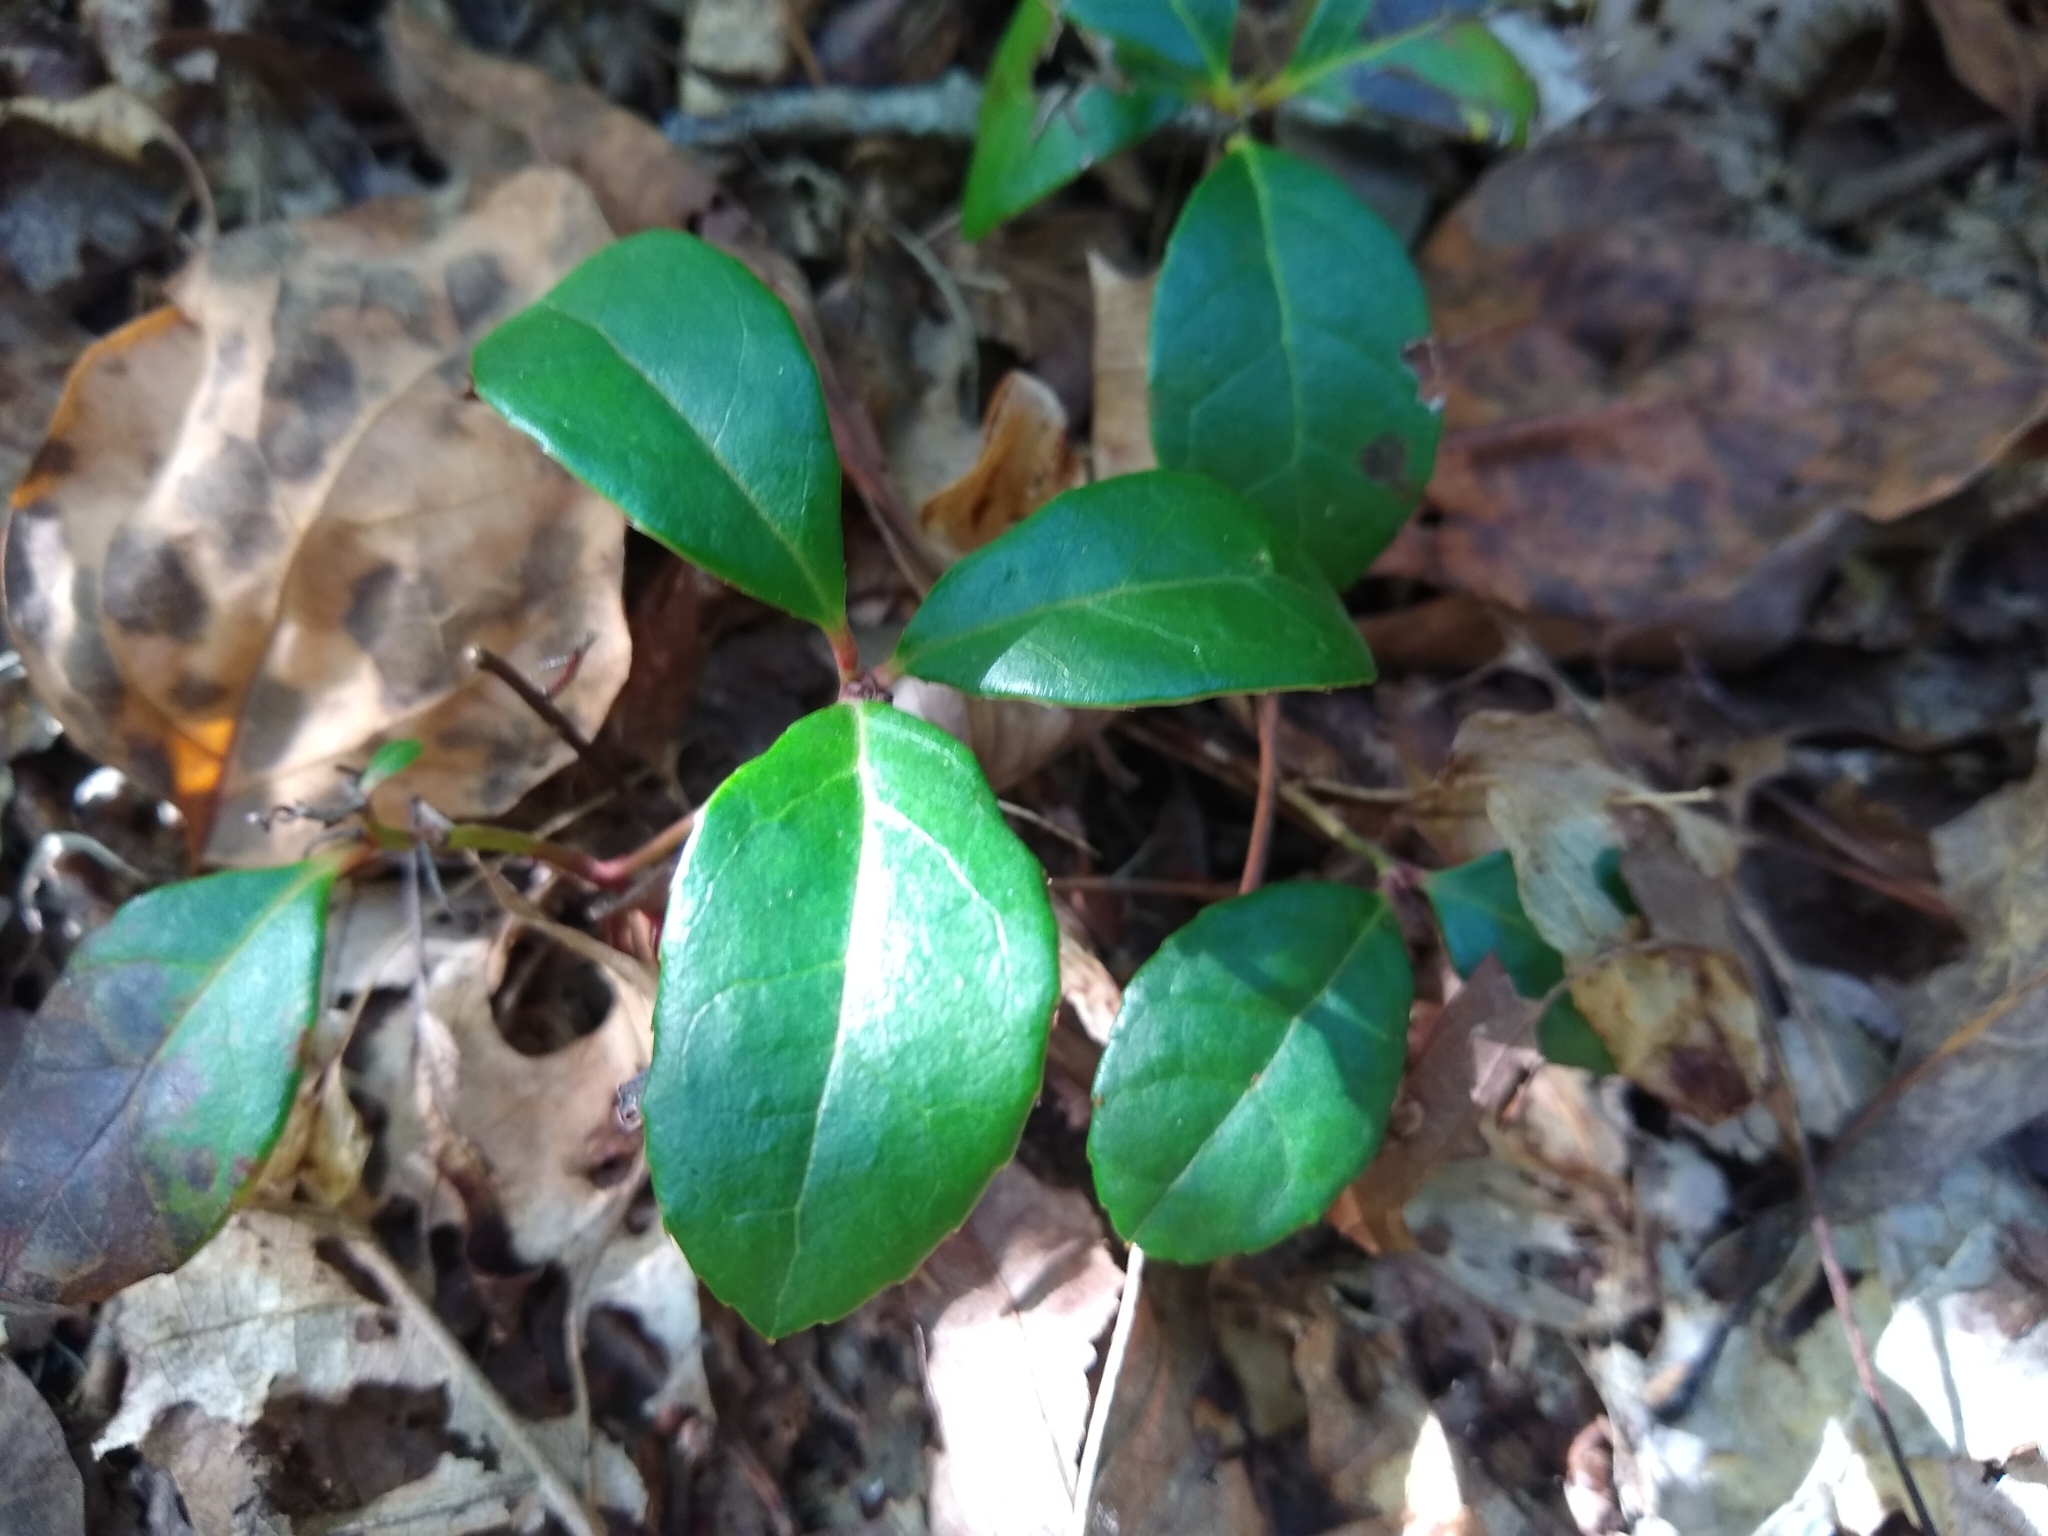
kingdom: Plantae
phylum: Tracheophyta
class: Magnoliopsida
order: Ericales
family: Ericaceae
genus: Gaultheria
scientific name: Gaultheria procumbens
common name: Checkerberry
